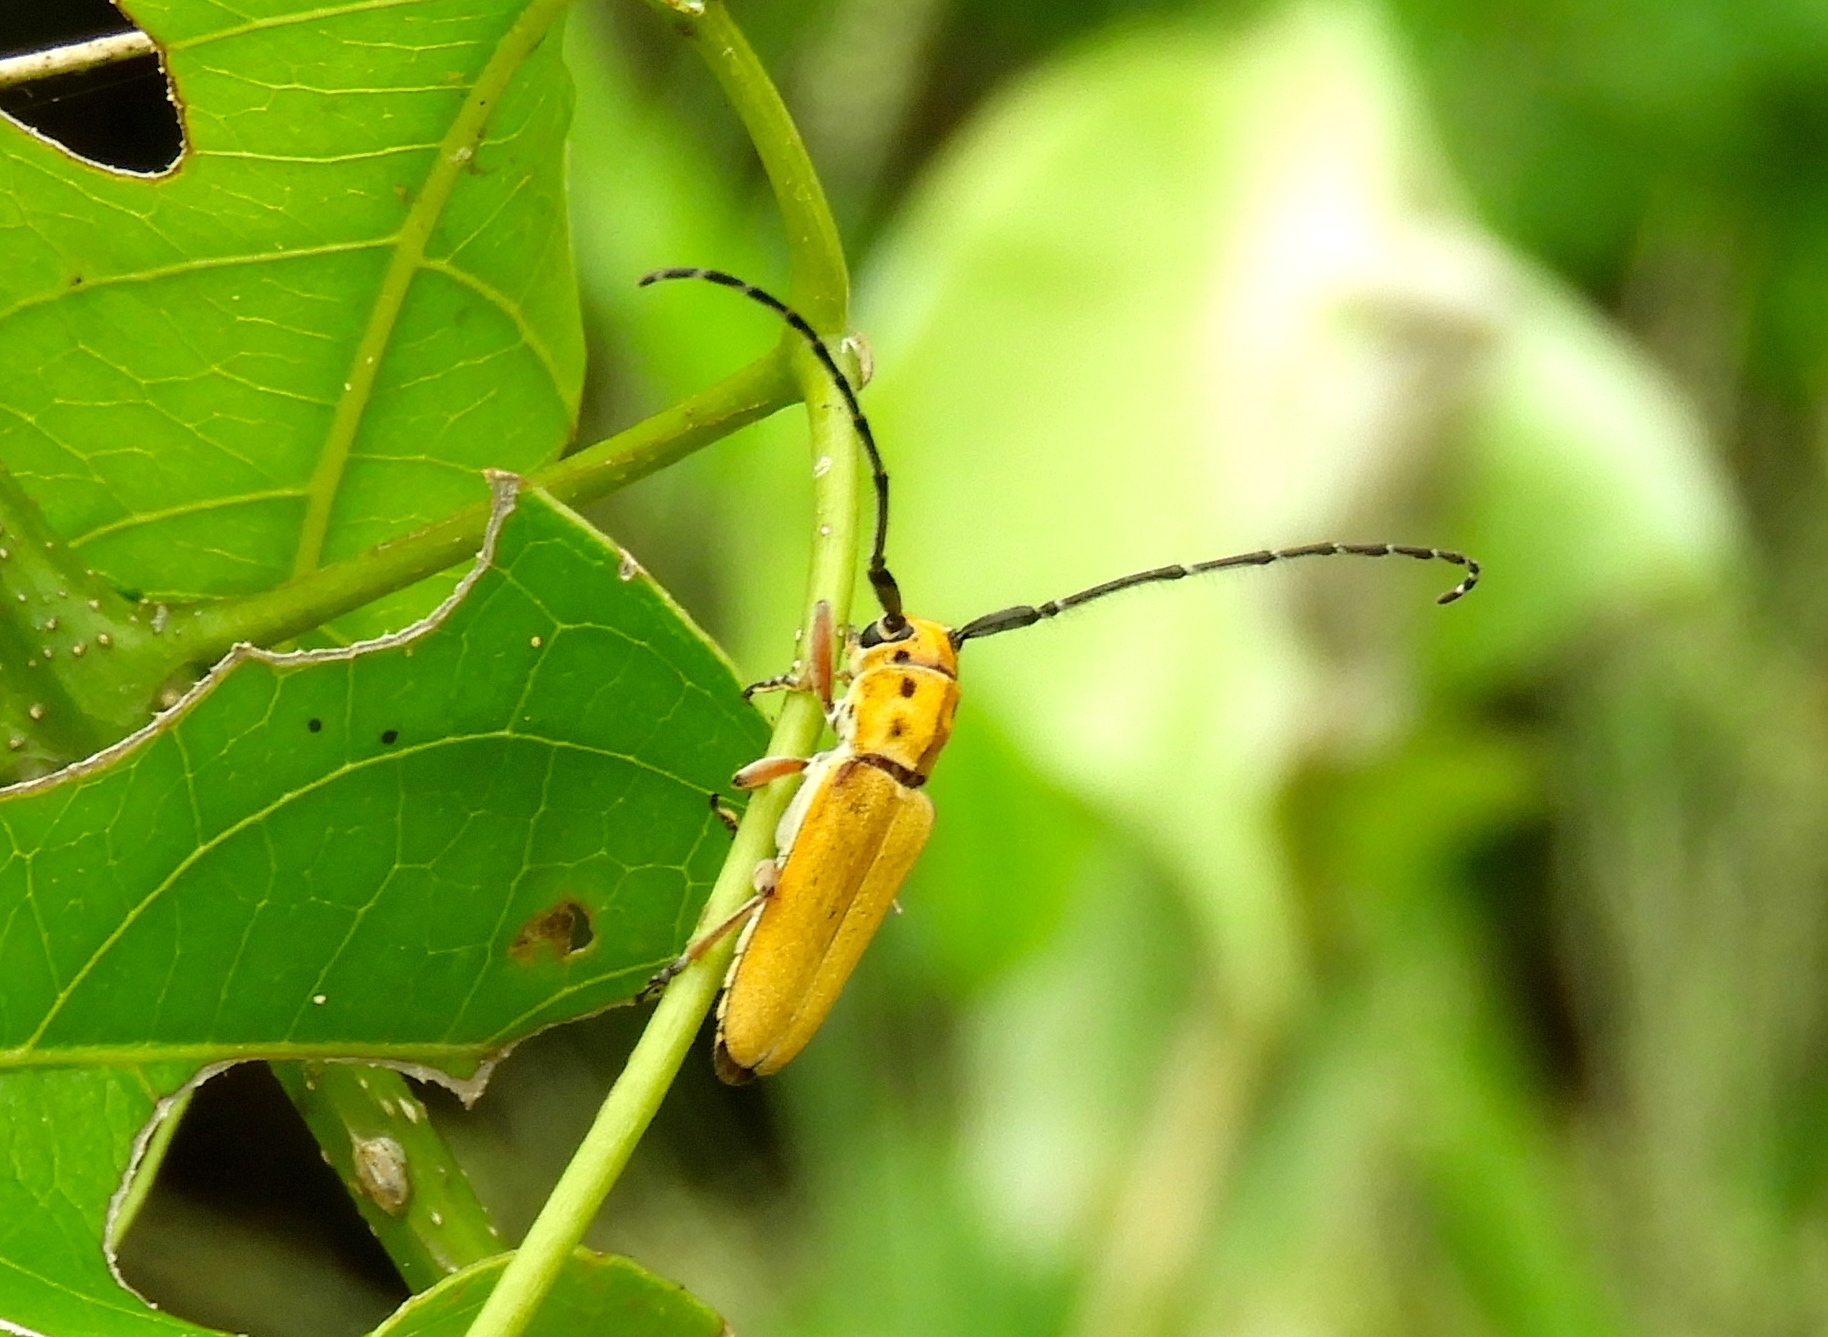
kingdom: Animalia
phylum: Arthropoda
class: Insecta
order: Coleoptera
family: Cerambycidae
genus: Essostrutha
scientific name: Essostrutha laeta
